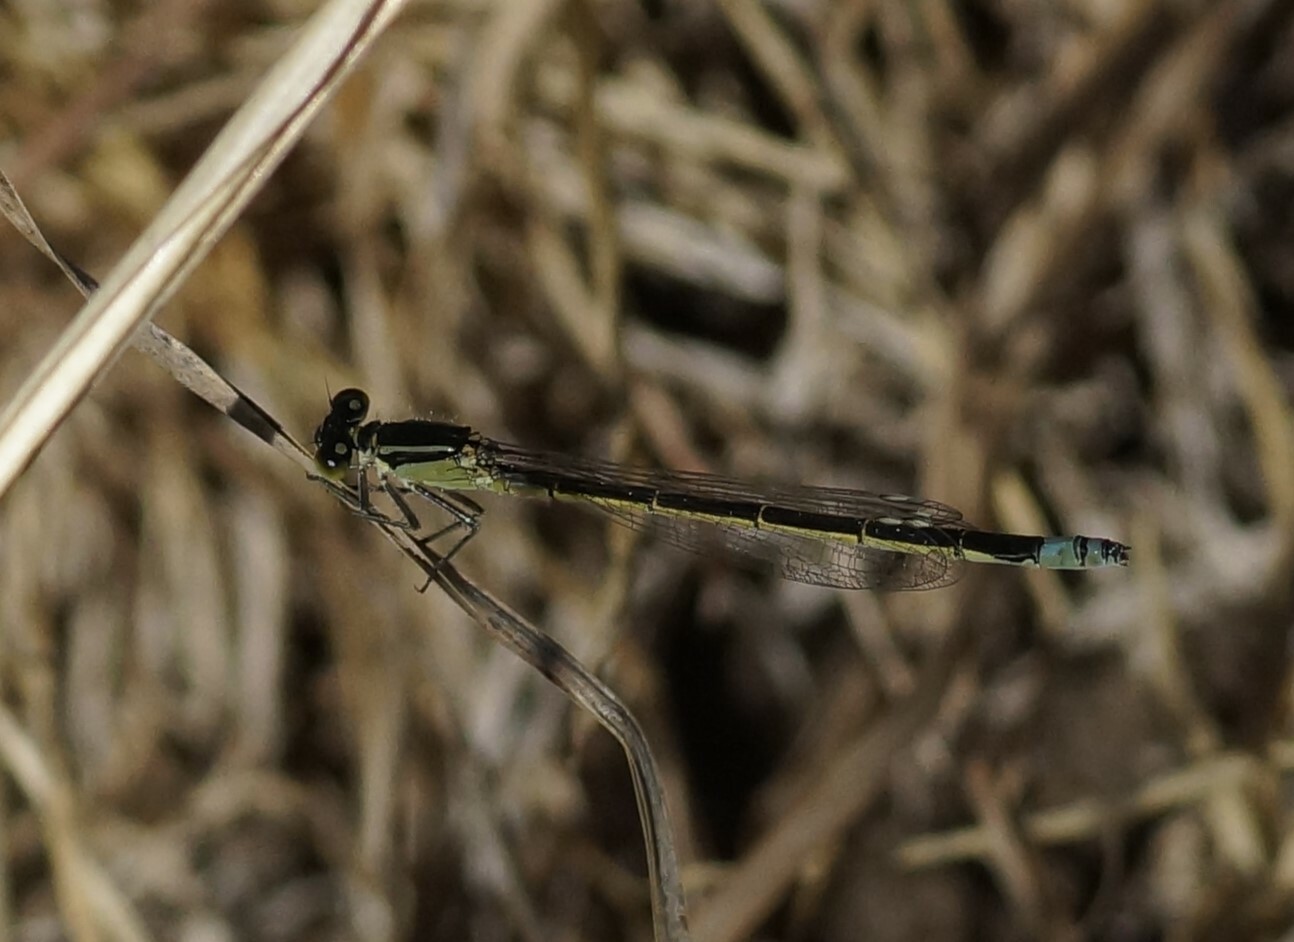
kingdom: Animalia
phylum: Arthropoda
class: Insecta
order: Odonata
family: Coenagrionidae
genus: Ischnura
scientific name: Ischnura heterosticta
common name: Common bluetail
